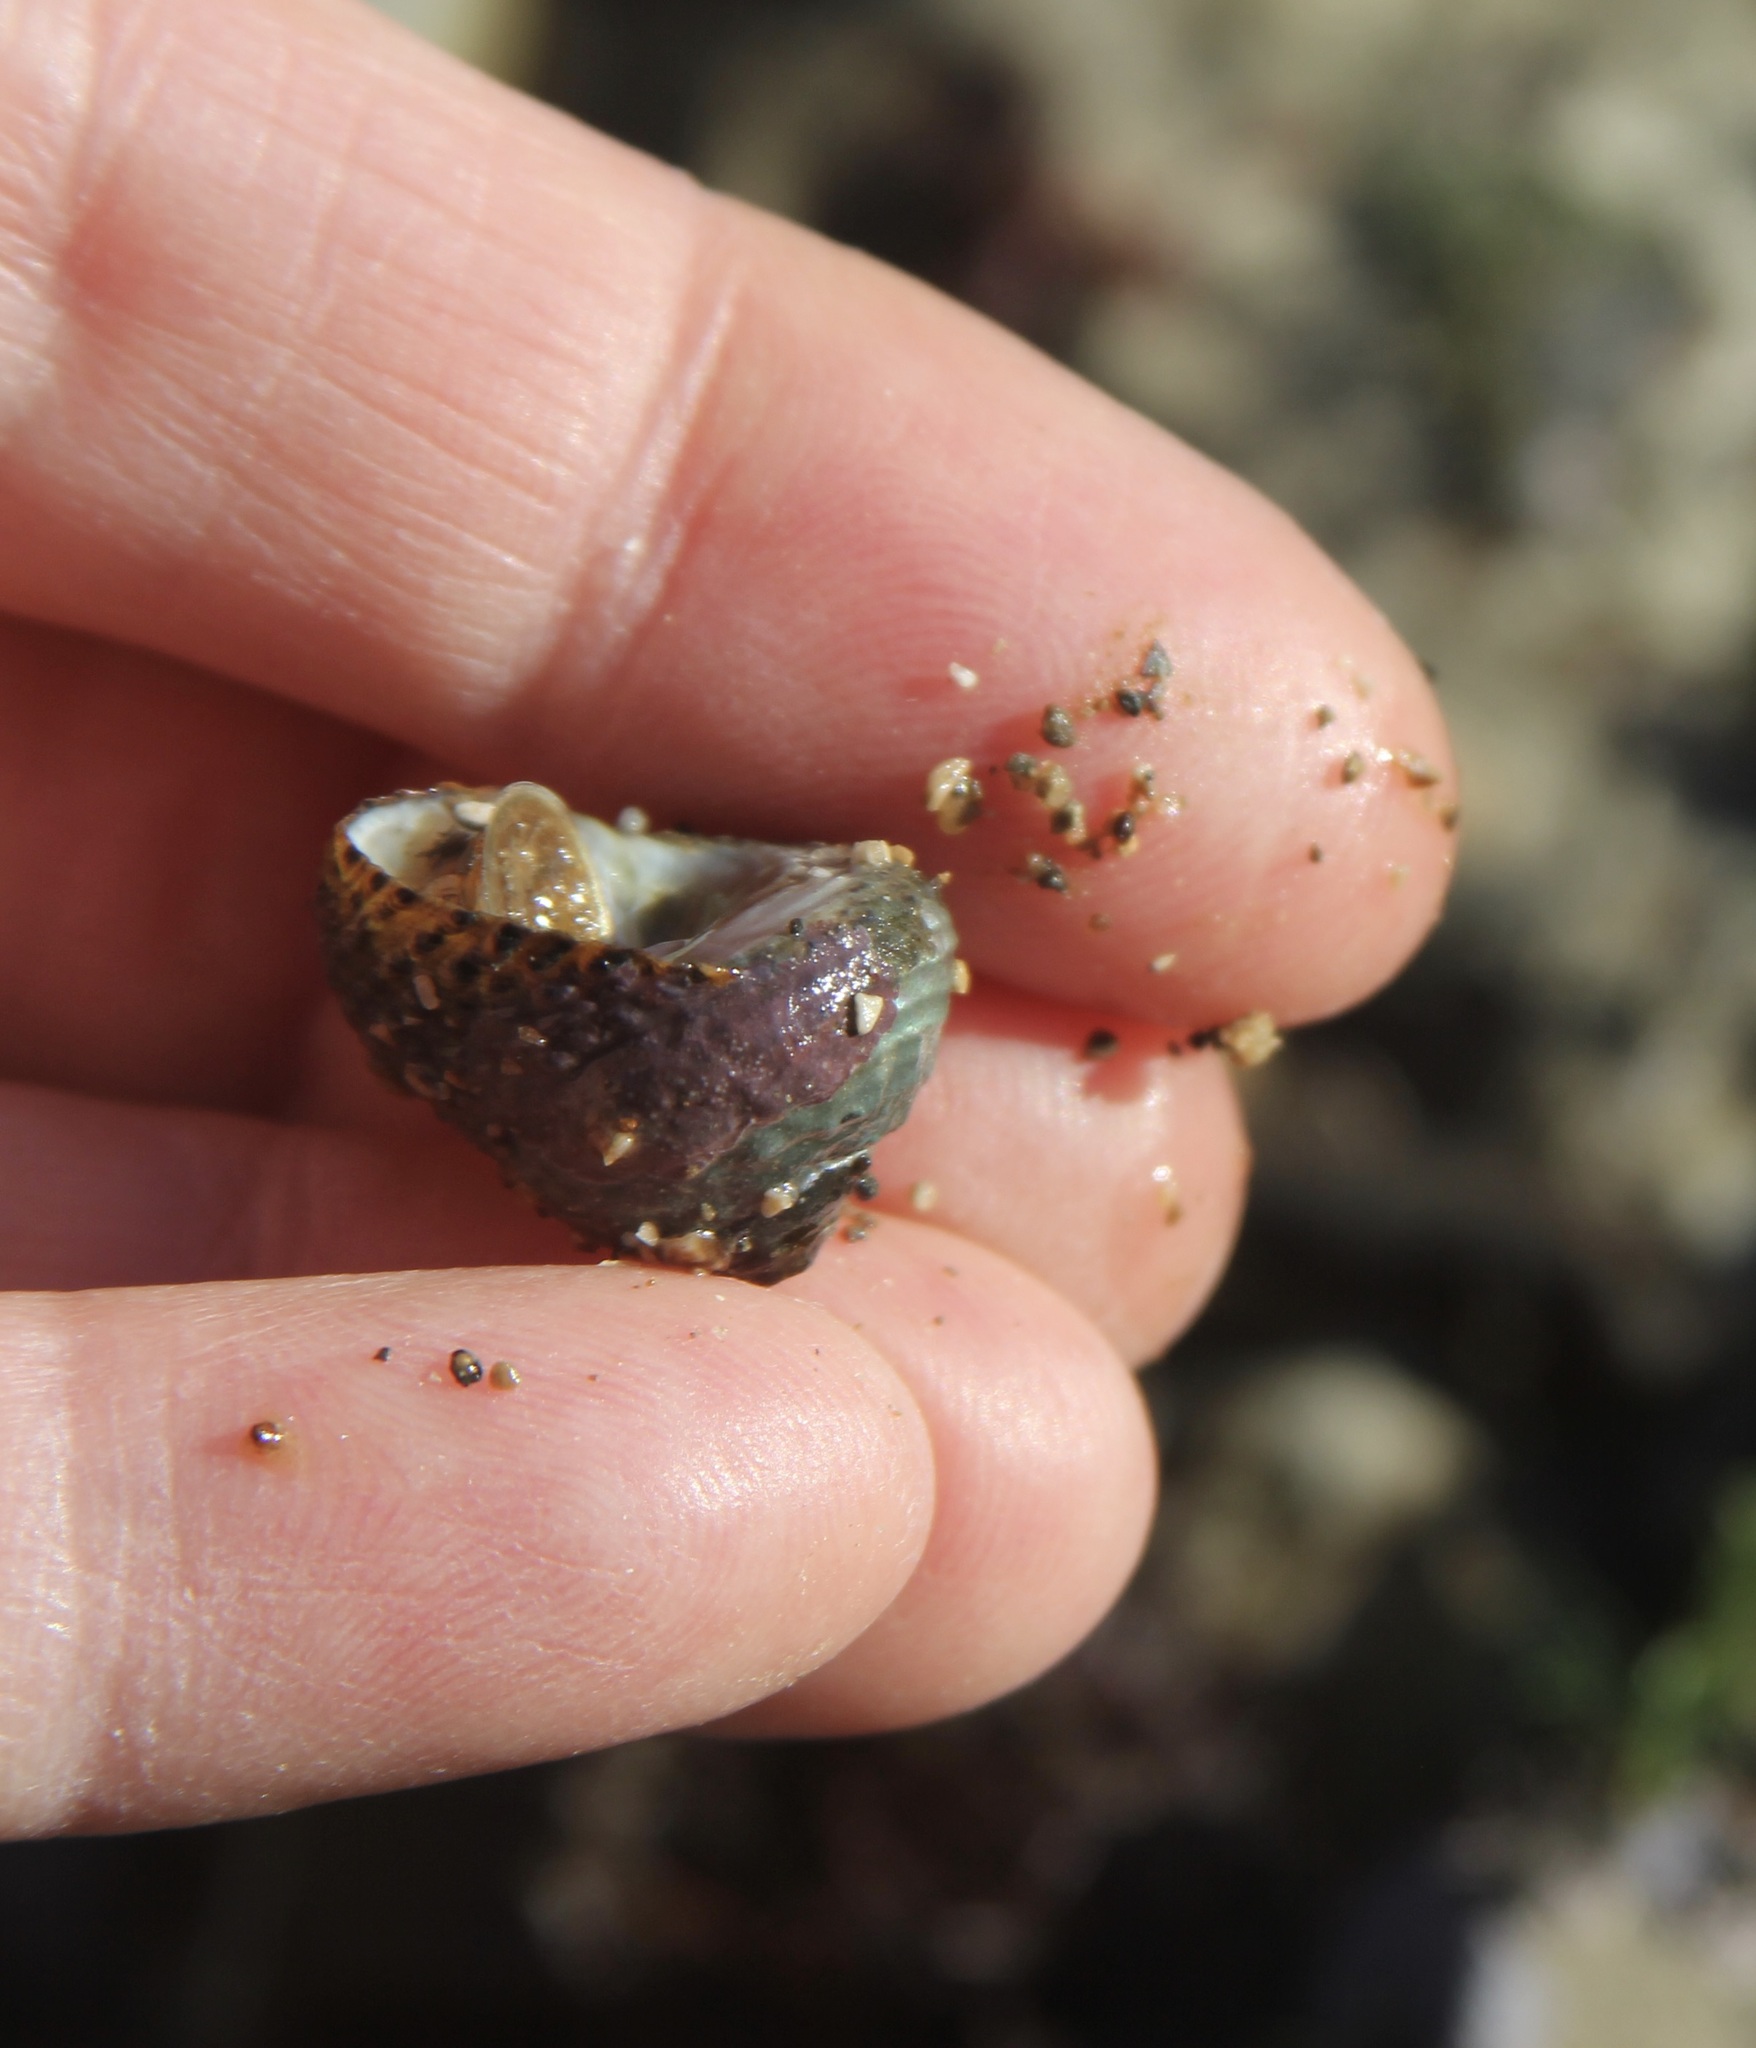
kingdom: Animalia
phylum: Mollusca
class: Gastropoda
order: Trochida
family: Tegulidae
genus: Tegula
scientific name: Tegula eiseni
